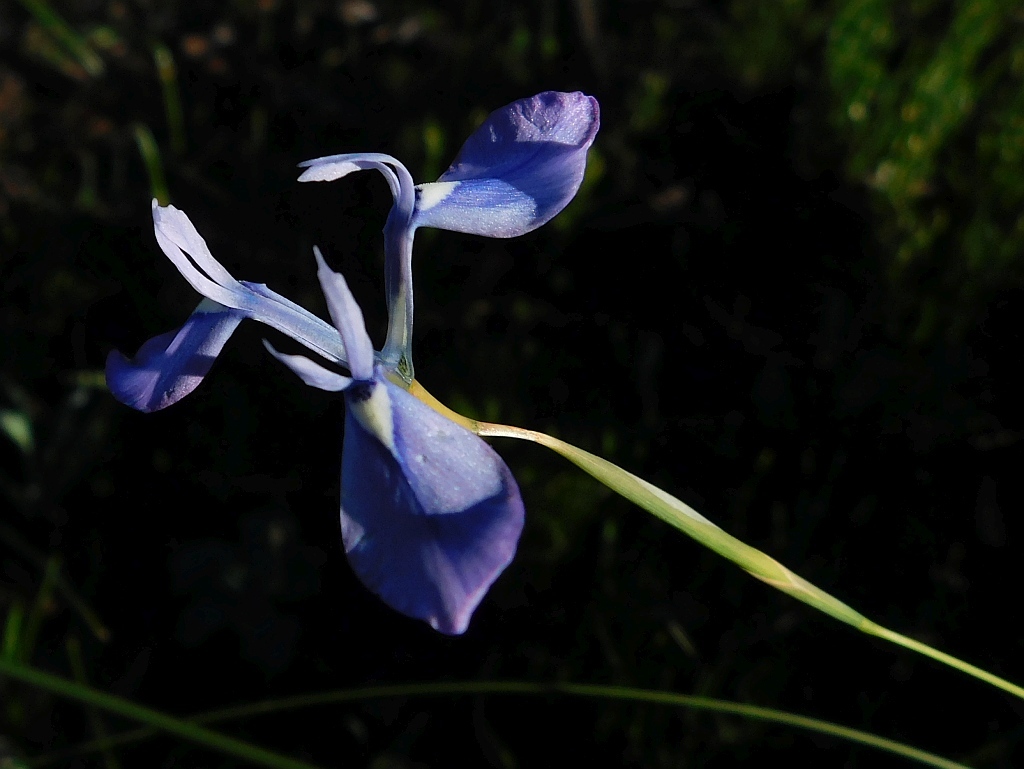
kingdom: Plantae
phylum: Tracheophyta
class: Liliopsida
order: Asparagales
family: Iridaceae
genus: Moraea
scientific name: Moraea tripetala
